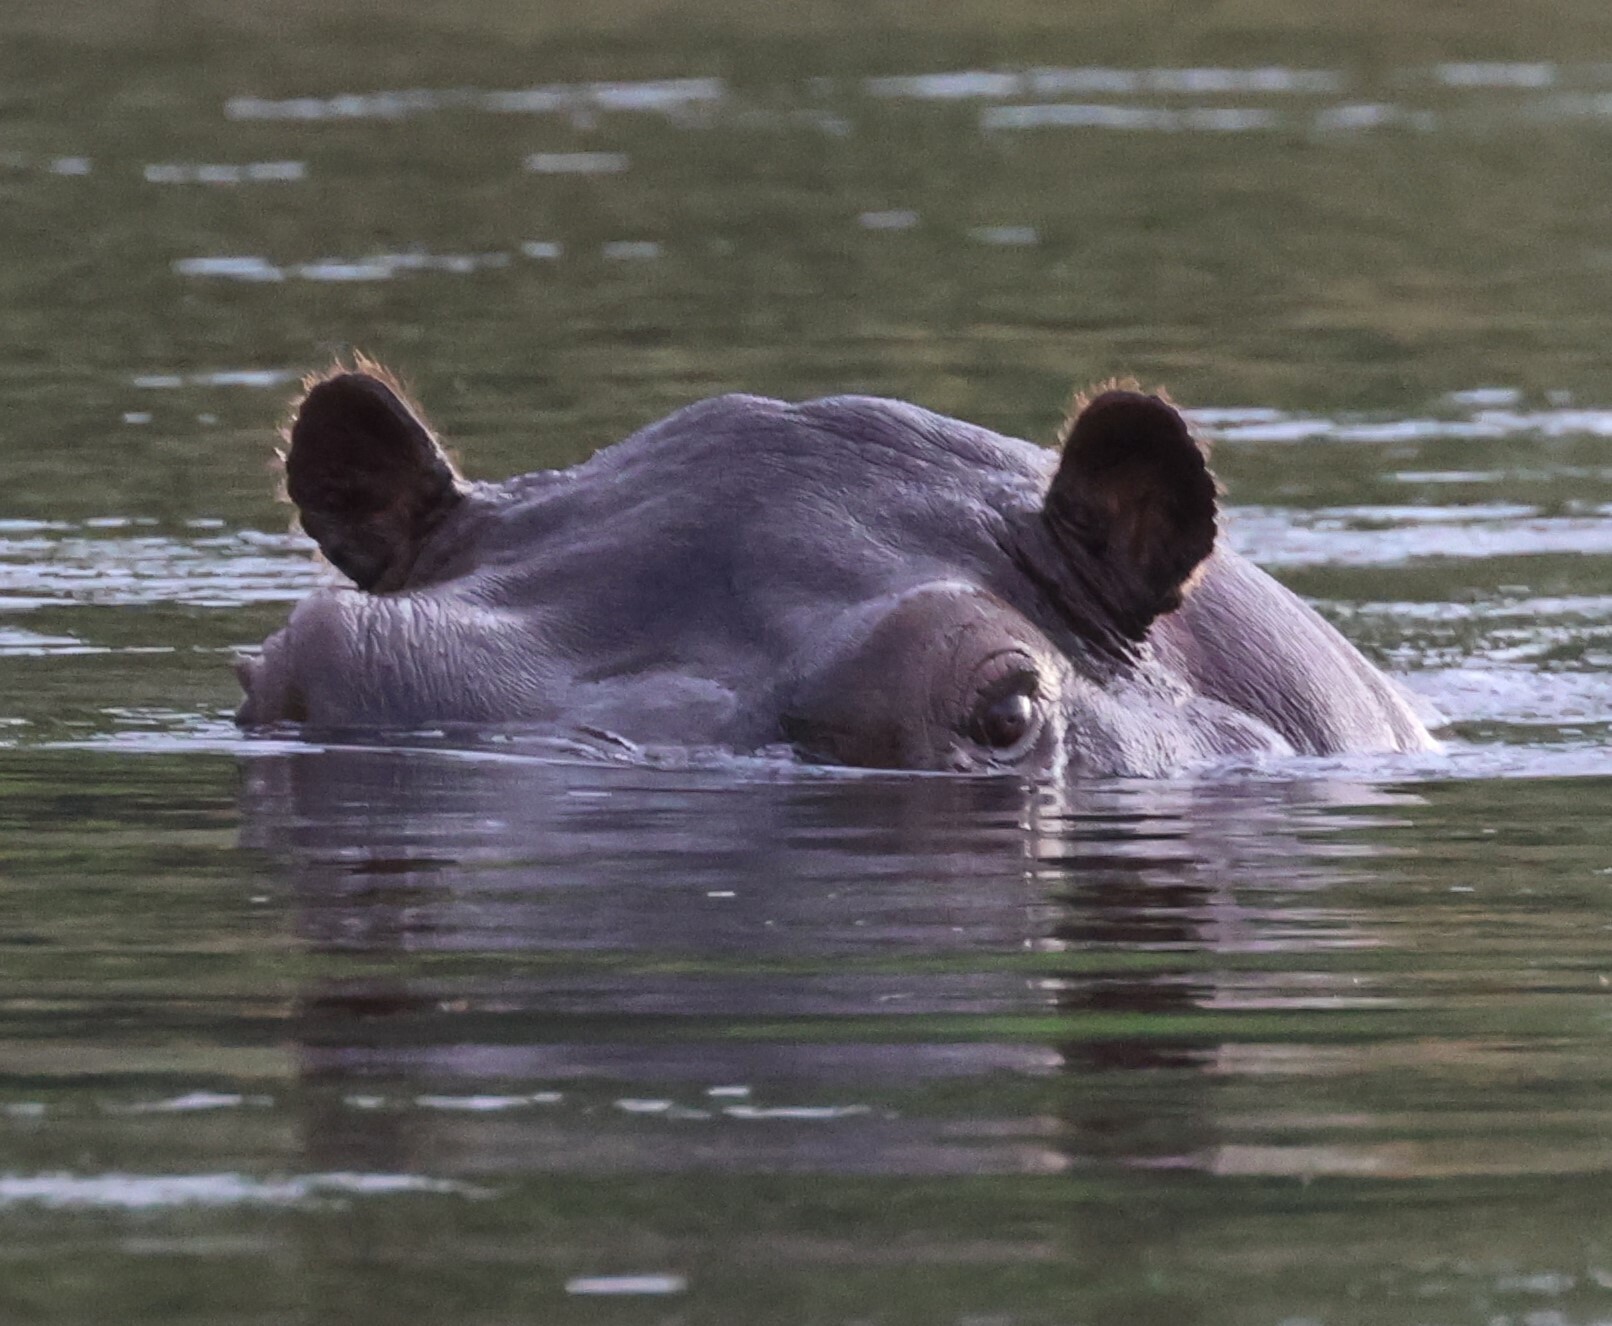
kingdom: Animalia
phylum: Chordata
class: Mammalia
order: Artiodactyla
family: Hippopotamidae
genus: Hippopotamus
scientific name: Hippopotamus amphibius
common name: Common hippopotamus
